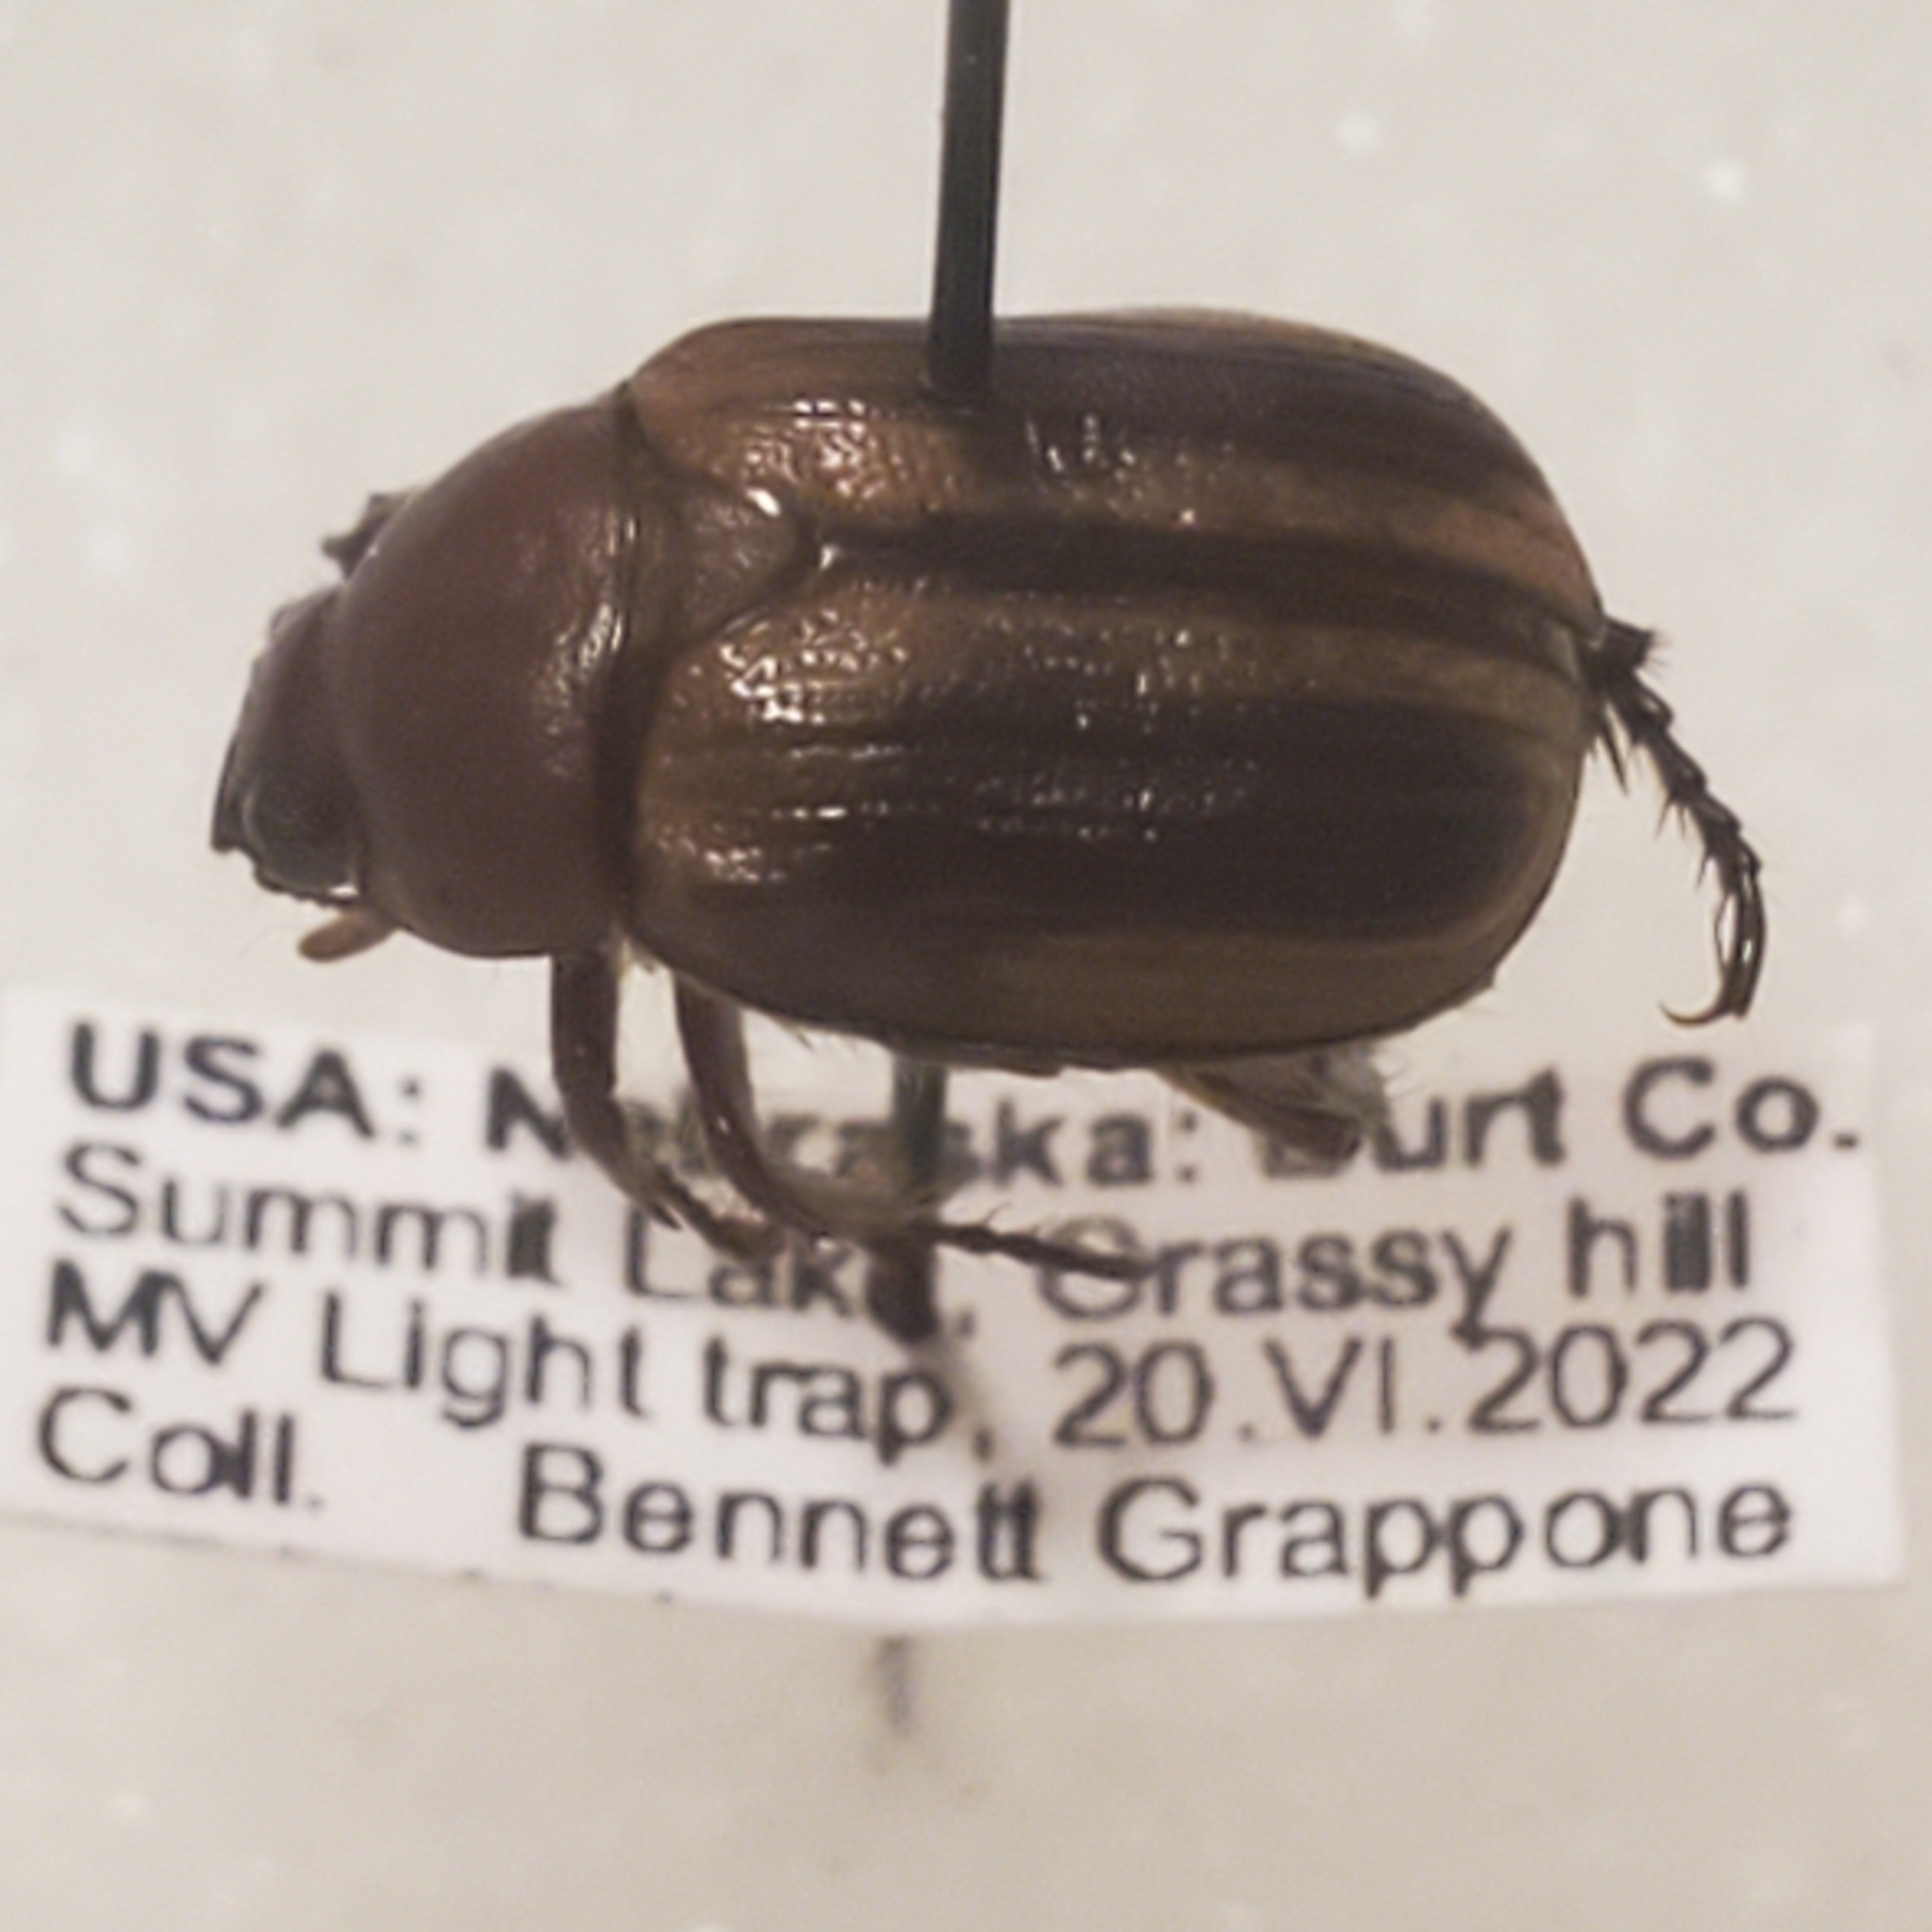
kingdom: Animalia
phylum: Arthropoda
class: Insecta
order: Coleoptera
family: Scarabaeidae
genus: Paranomala
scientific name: Paranomala flavipennis
